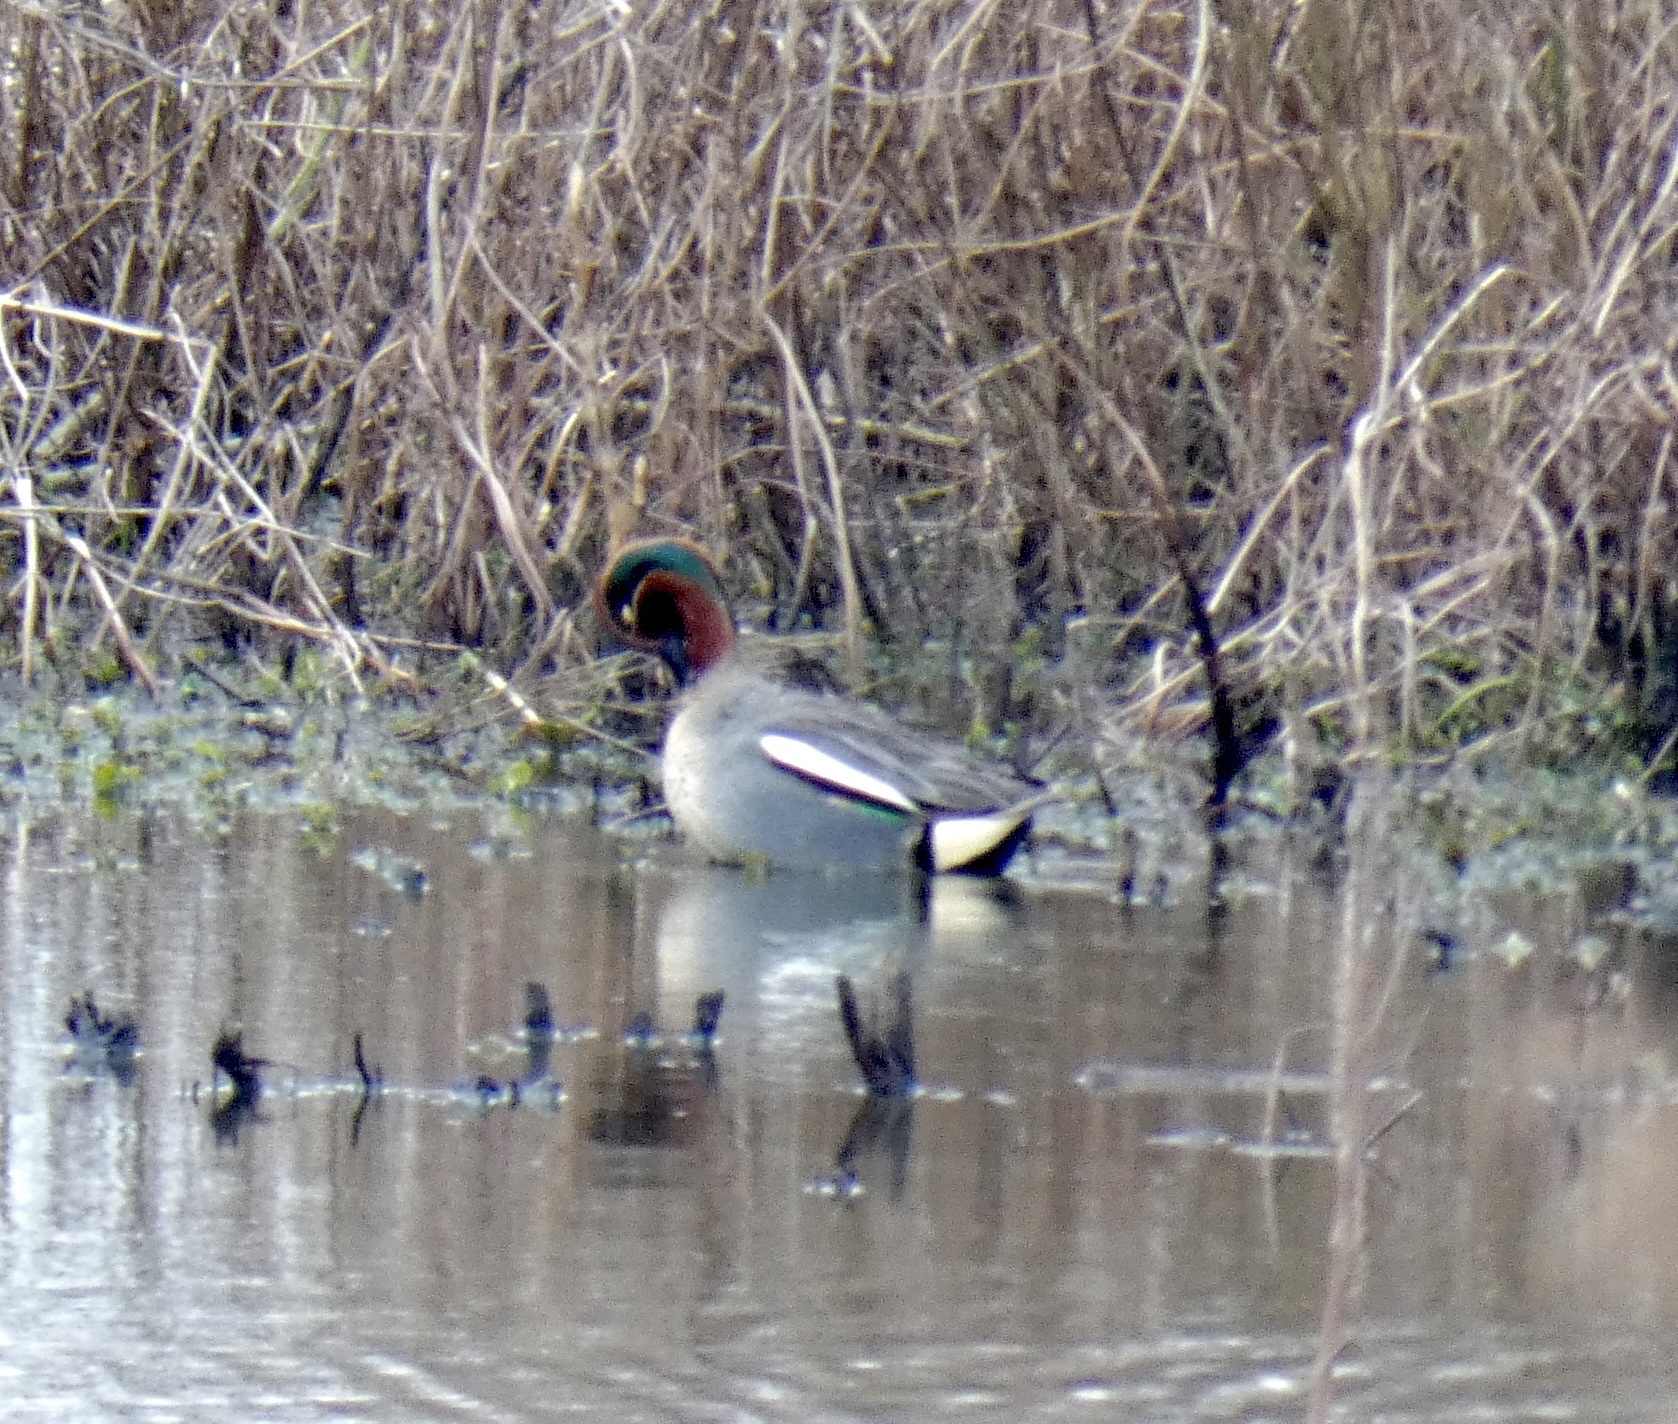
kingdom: Animalia
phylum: Chordata
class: Aves
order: Anseriformes
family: Anatidae
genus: Anas
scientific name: Anas crecca
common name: Eurasian teal
